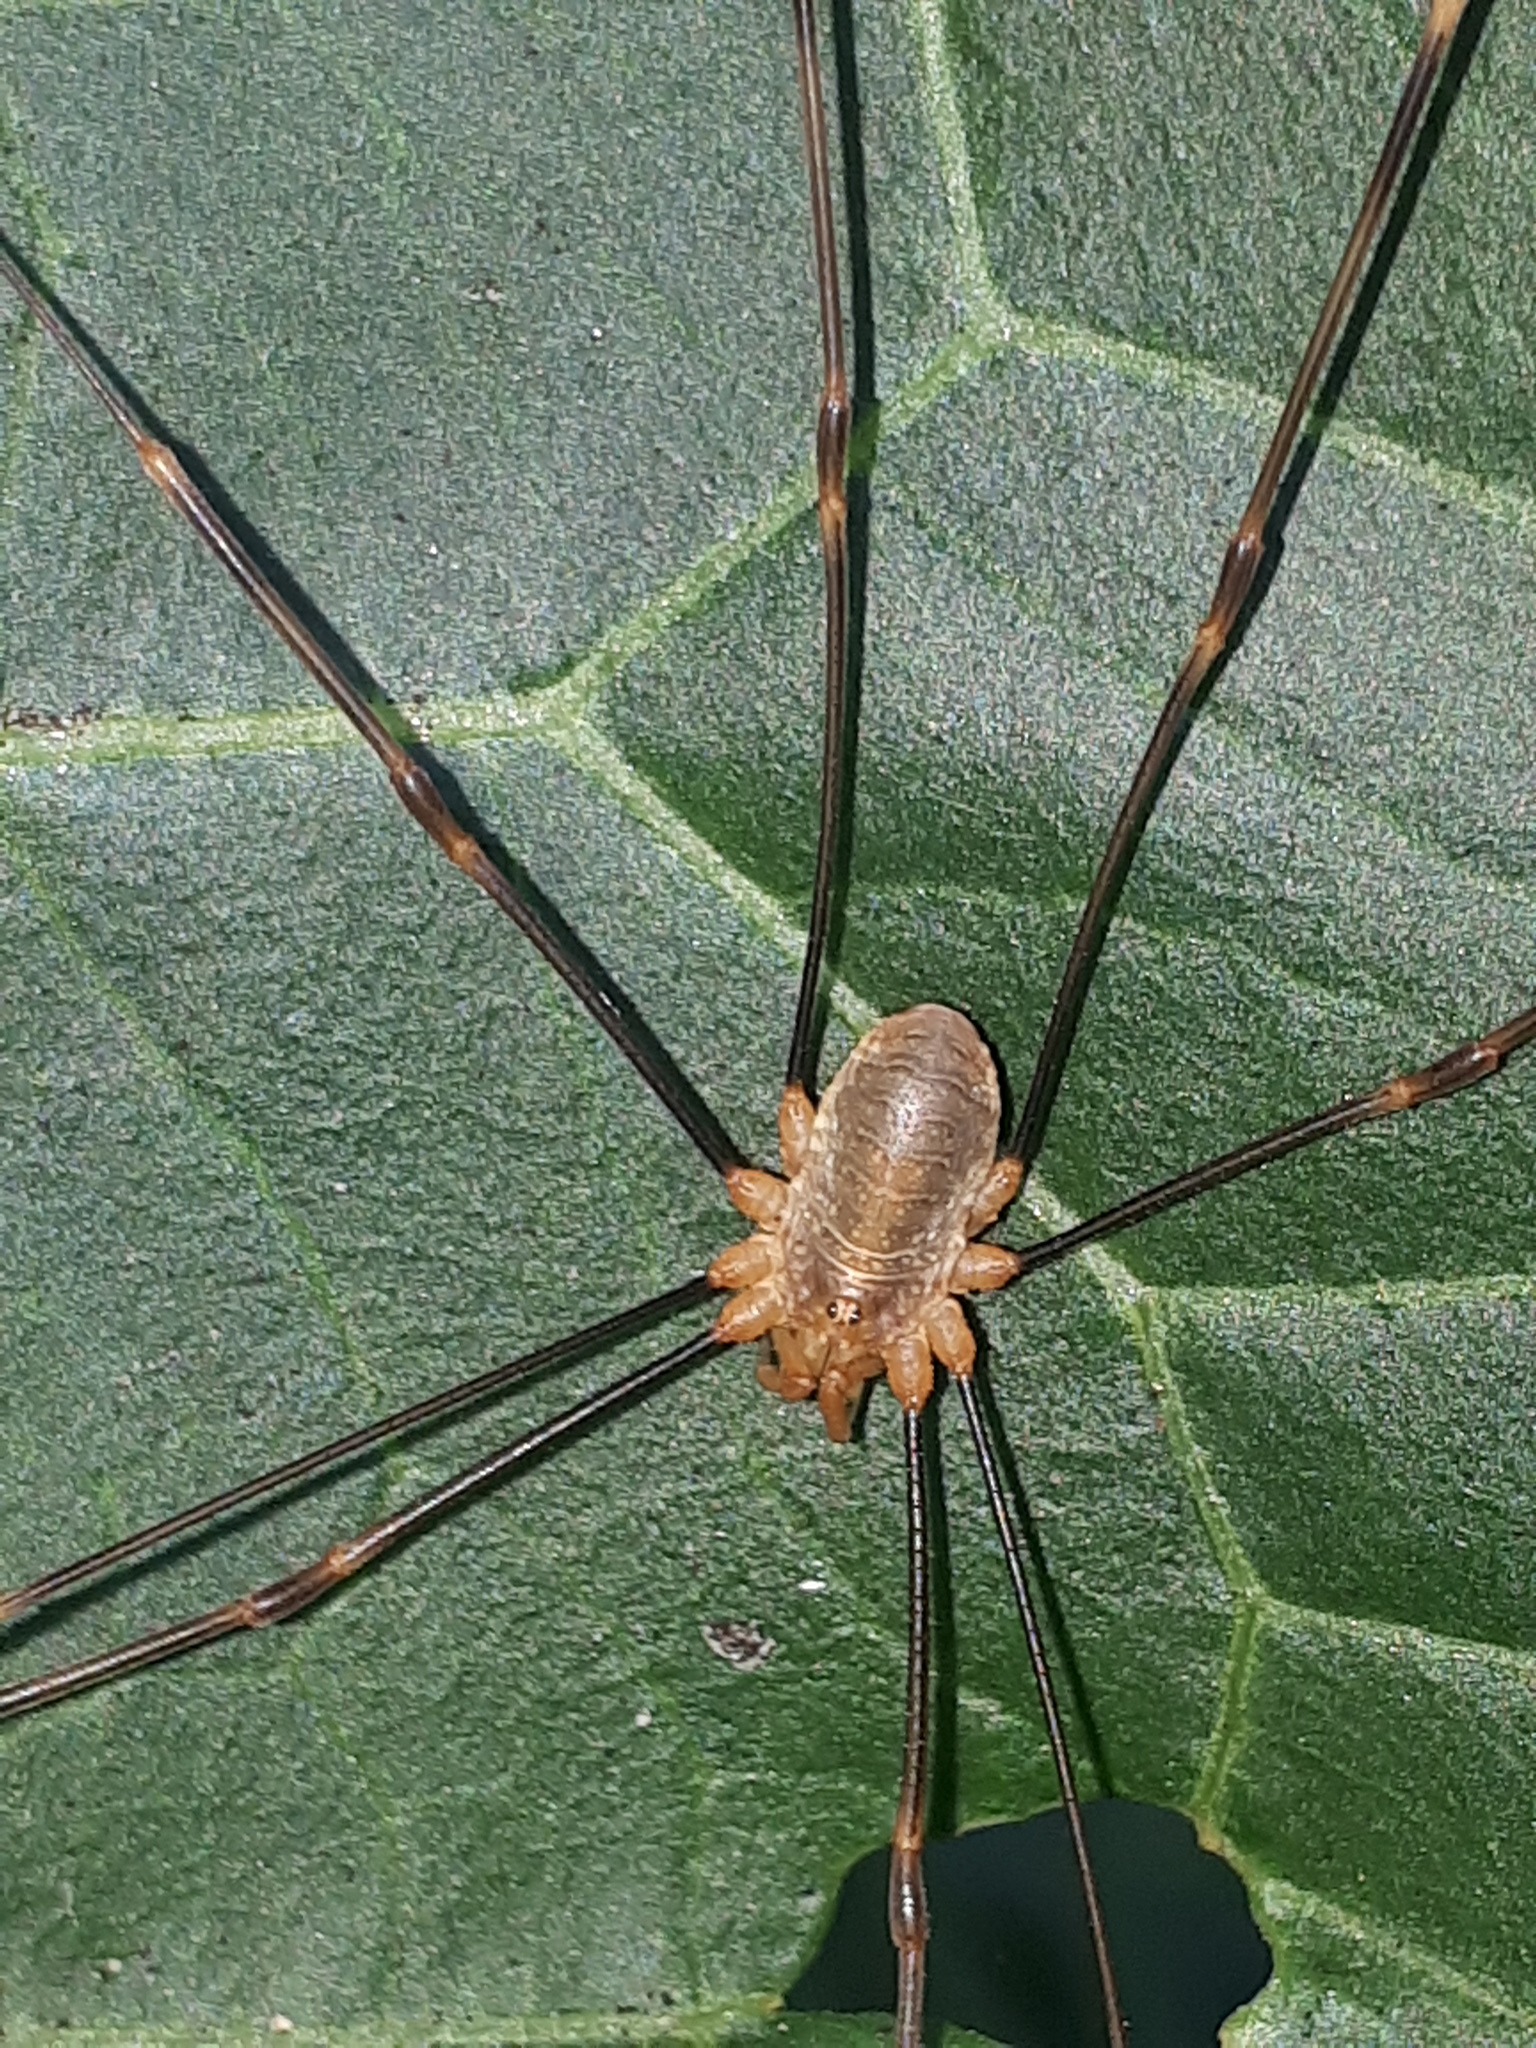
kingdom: Animalia
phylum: Arthropoda
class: Arachnida
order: Opiliones
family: Phalangiidae
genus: Opilio
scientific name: Opilio canestrinii
